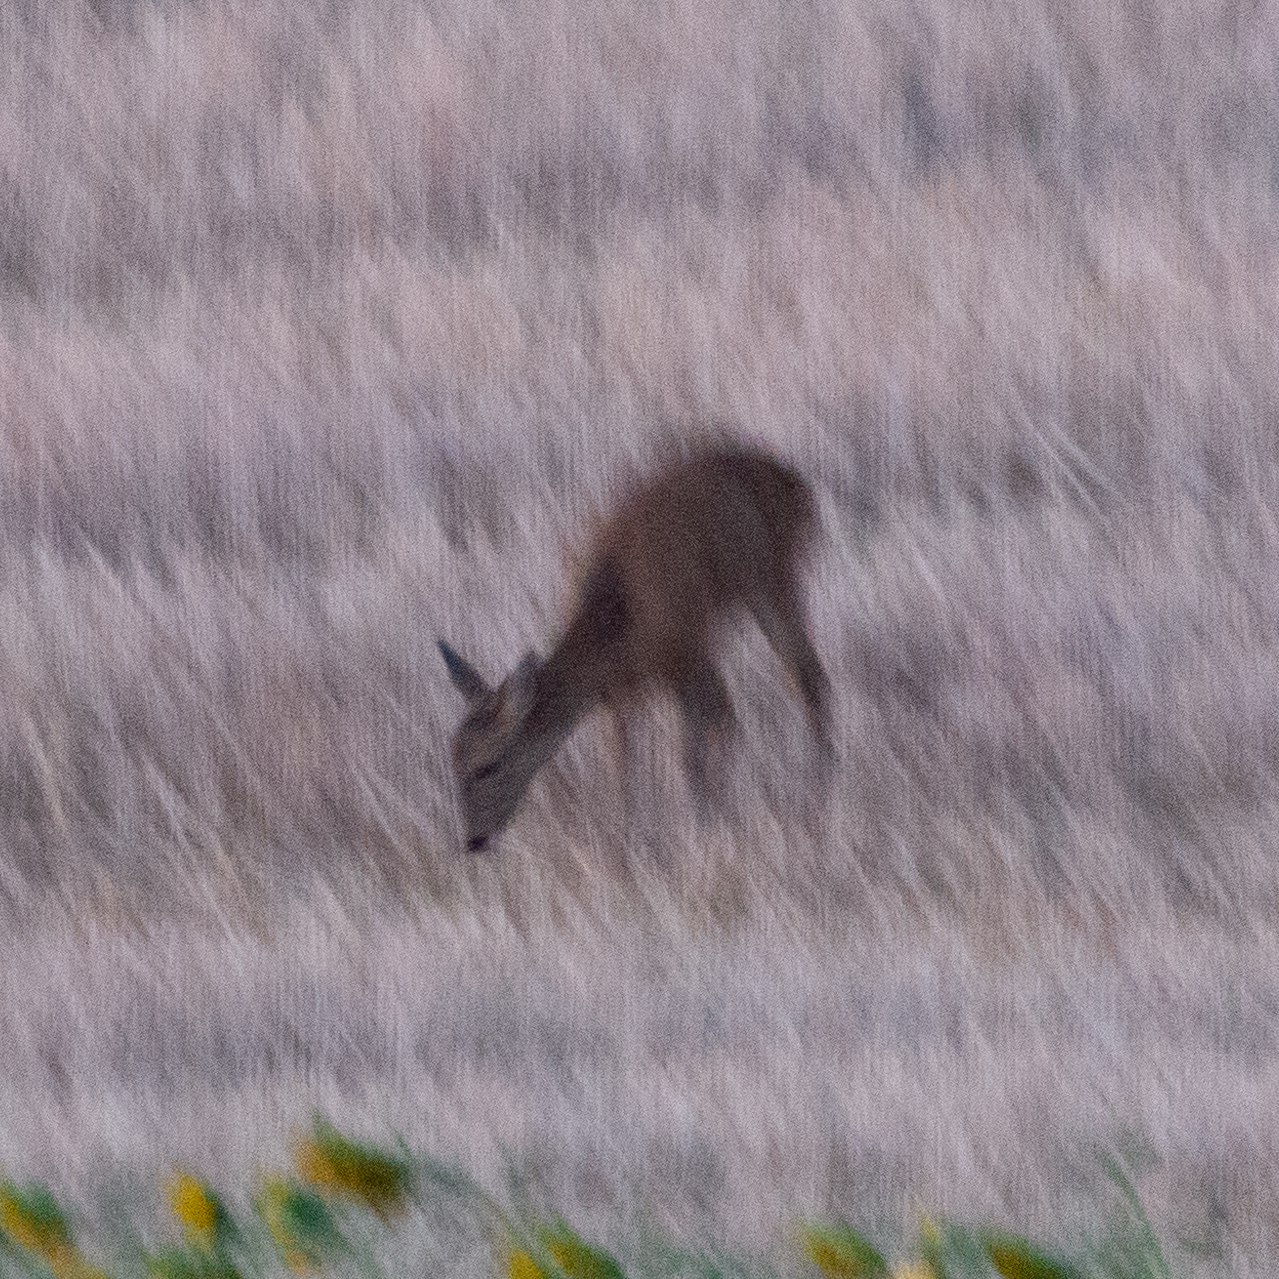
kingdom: Animalia
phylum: Chordata
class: Mammalia
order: Artiodactyla
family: Cervidae
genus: Capreolus
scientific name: Capreolus capreolus
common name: Western roe deer
